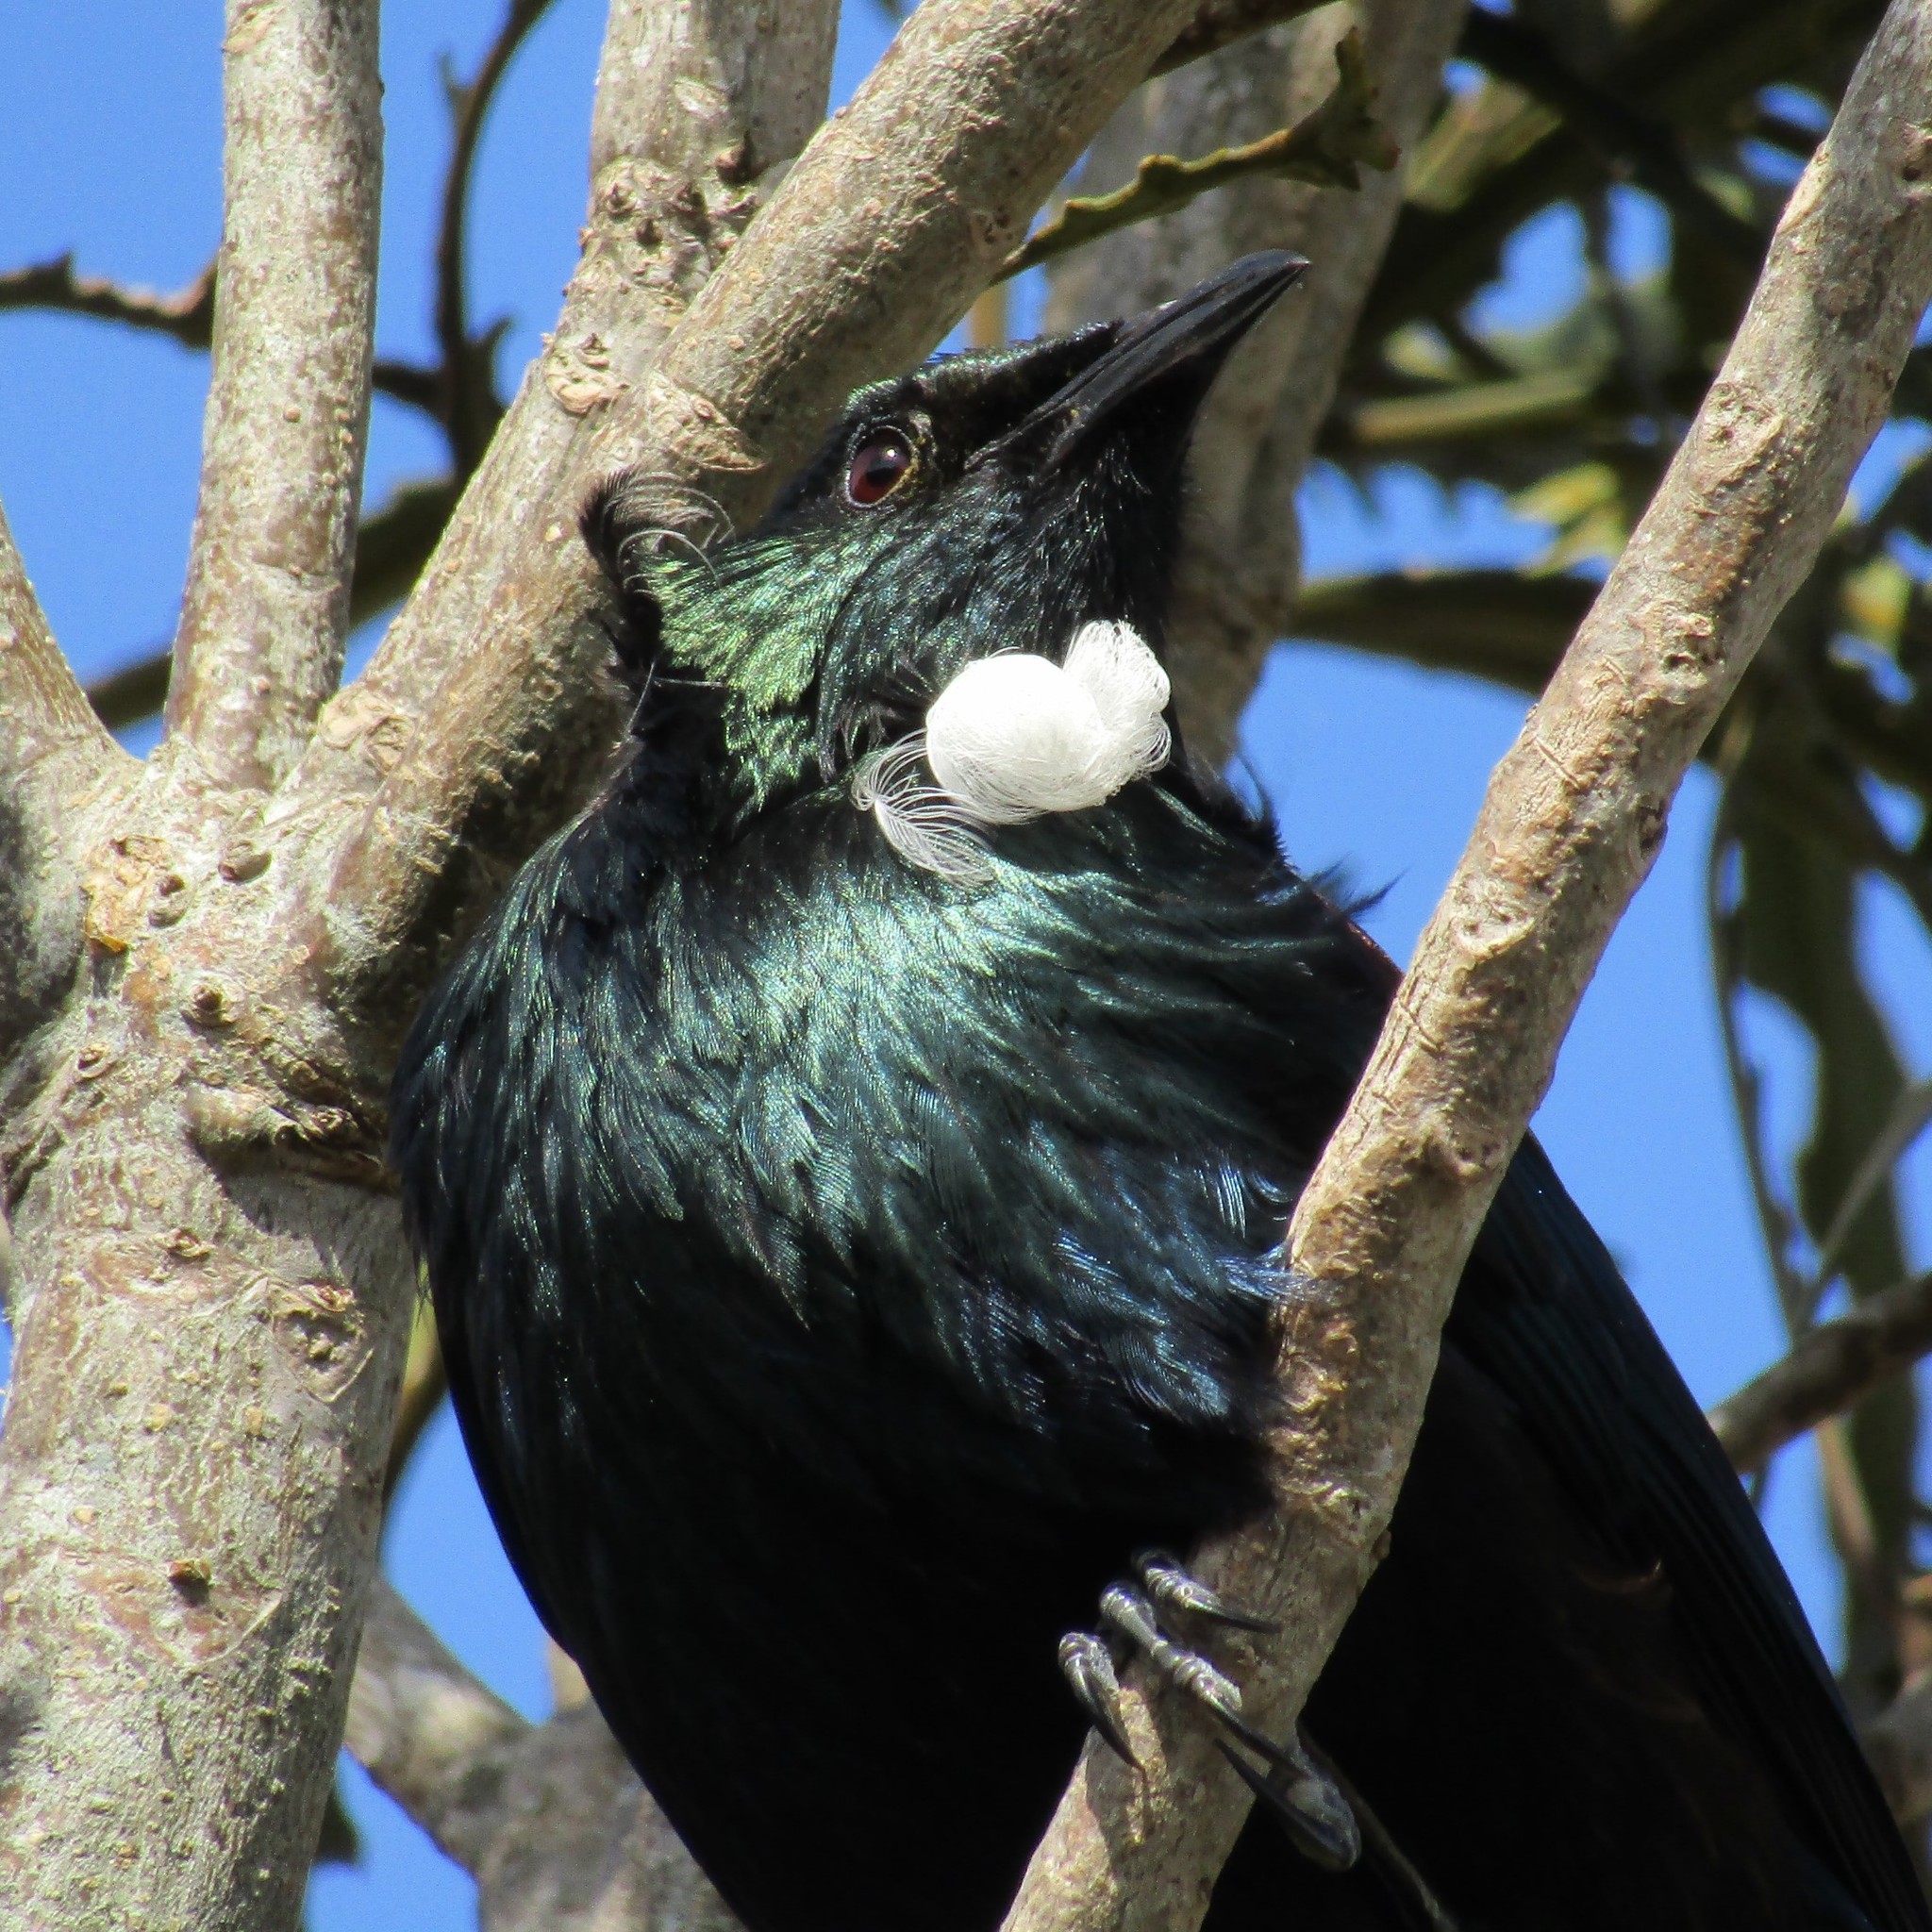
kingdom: Animalia
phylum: Chordata
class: Aves
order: Passeriformes
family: Meliphagidae
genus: Prosthemadera
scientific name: Prosthemadera novaeseelandiae
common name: Tui
